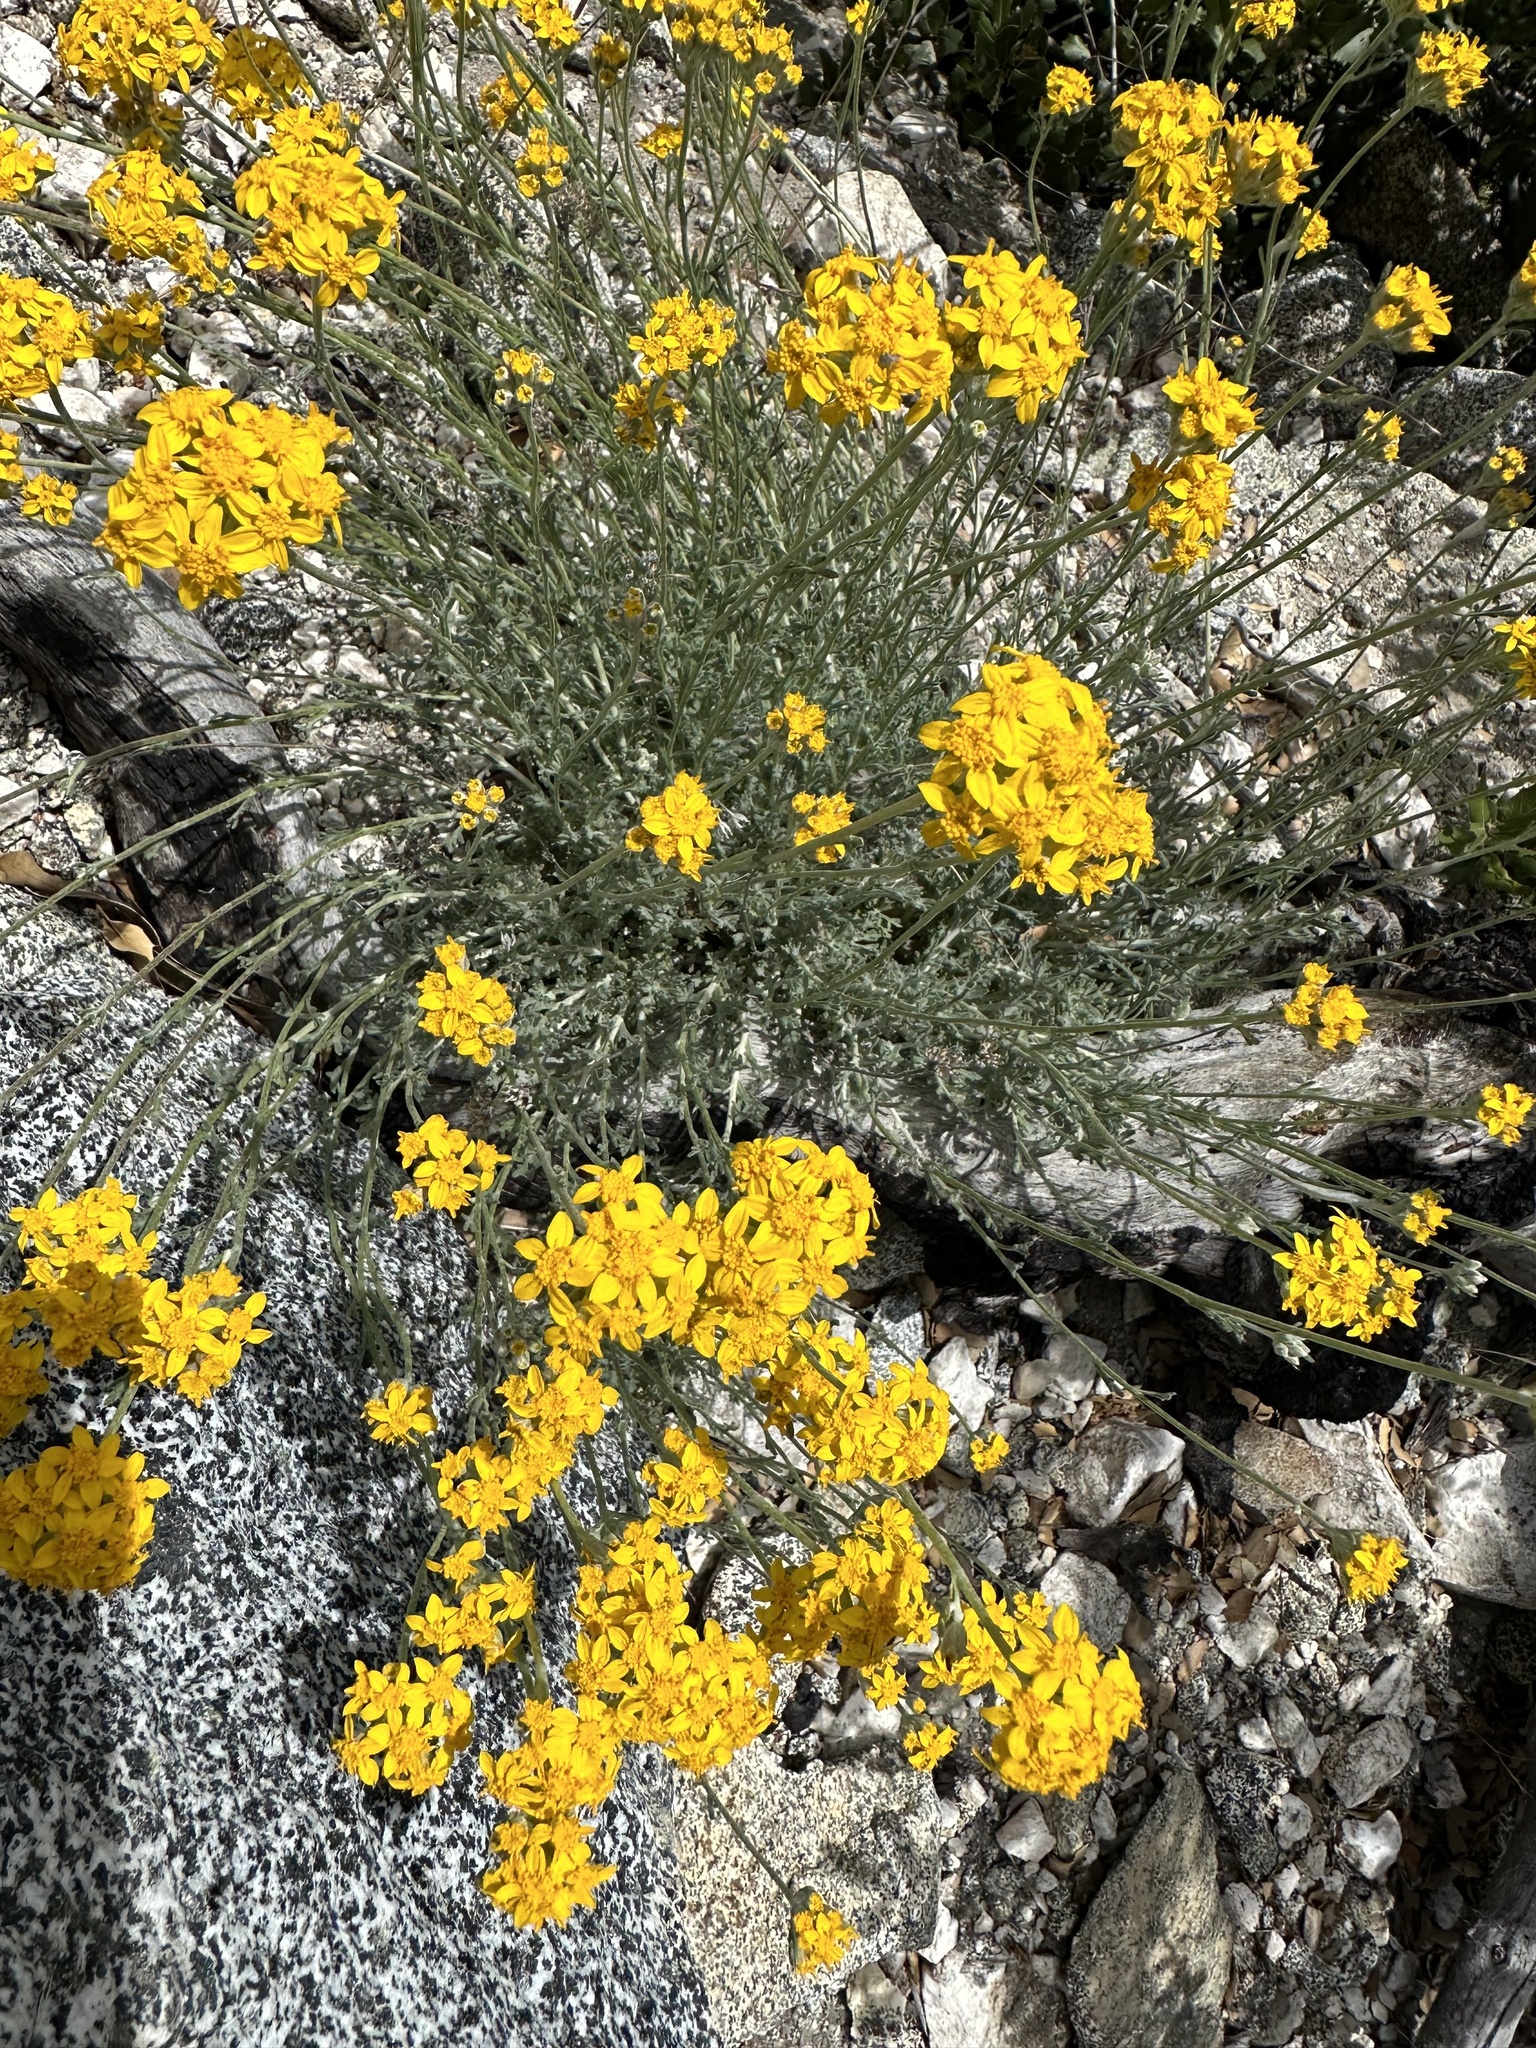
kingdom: Plantae
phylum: Tracheophyta
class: Magnoliopsida
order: Asterales
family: Asteraceae
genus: Eriophyllum
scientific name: Eriophyllum confertiflorum
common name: Golden-yarrow
